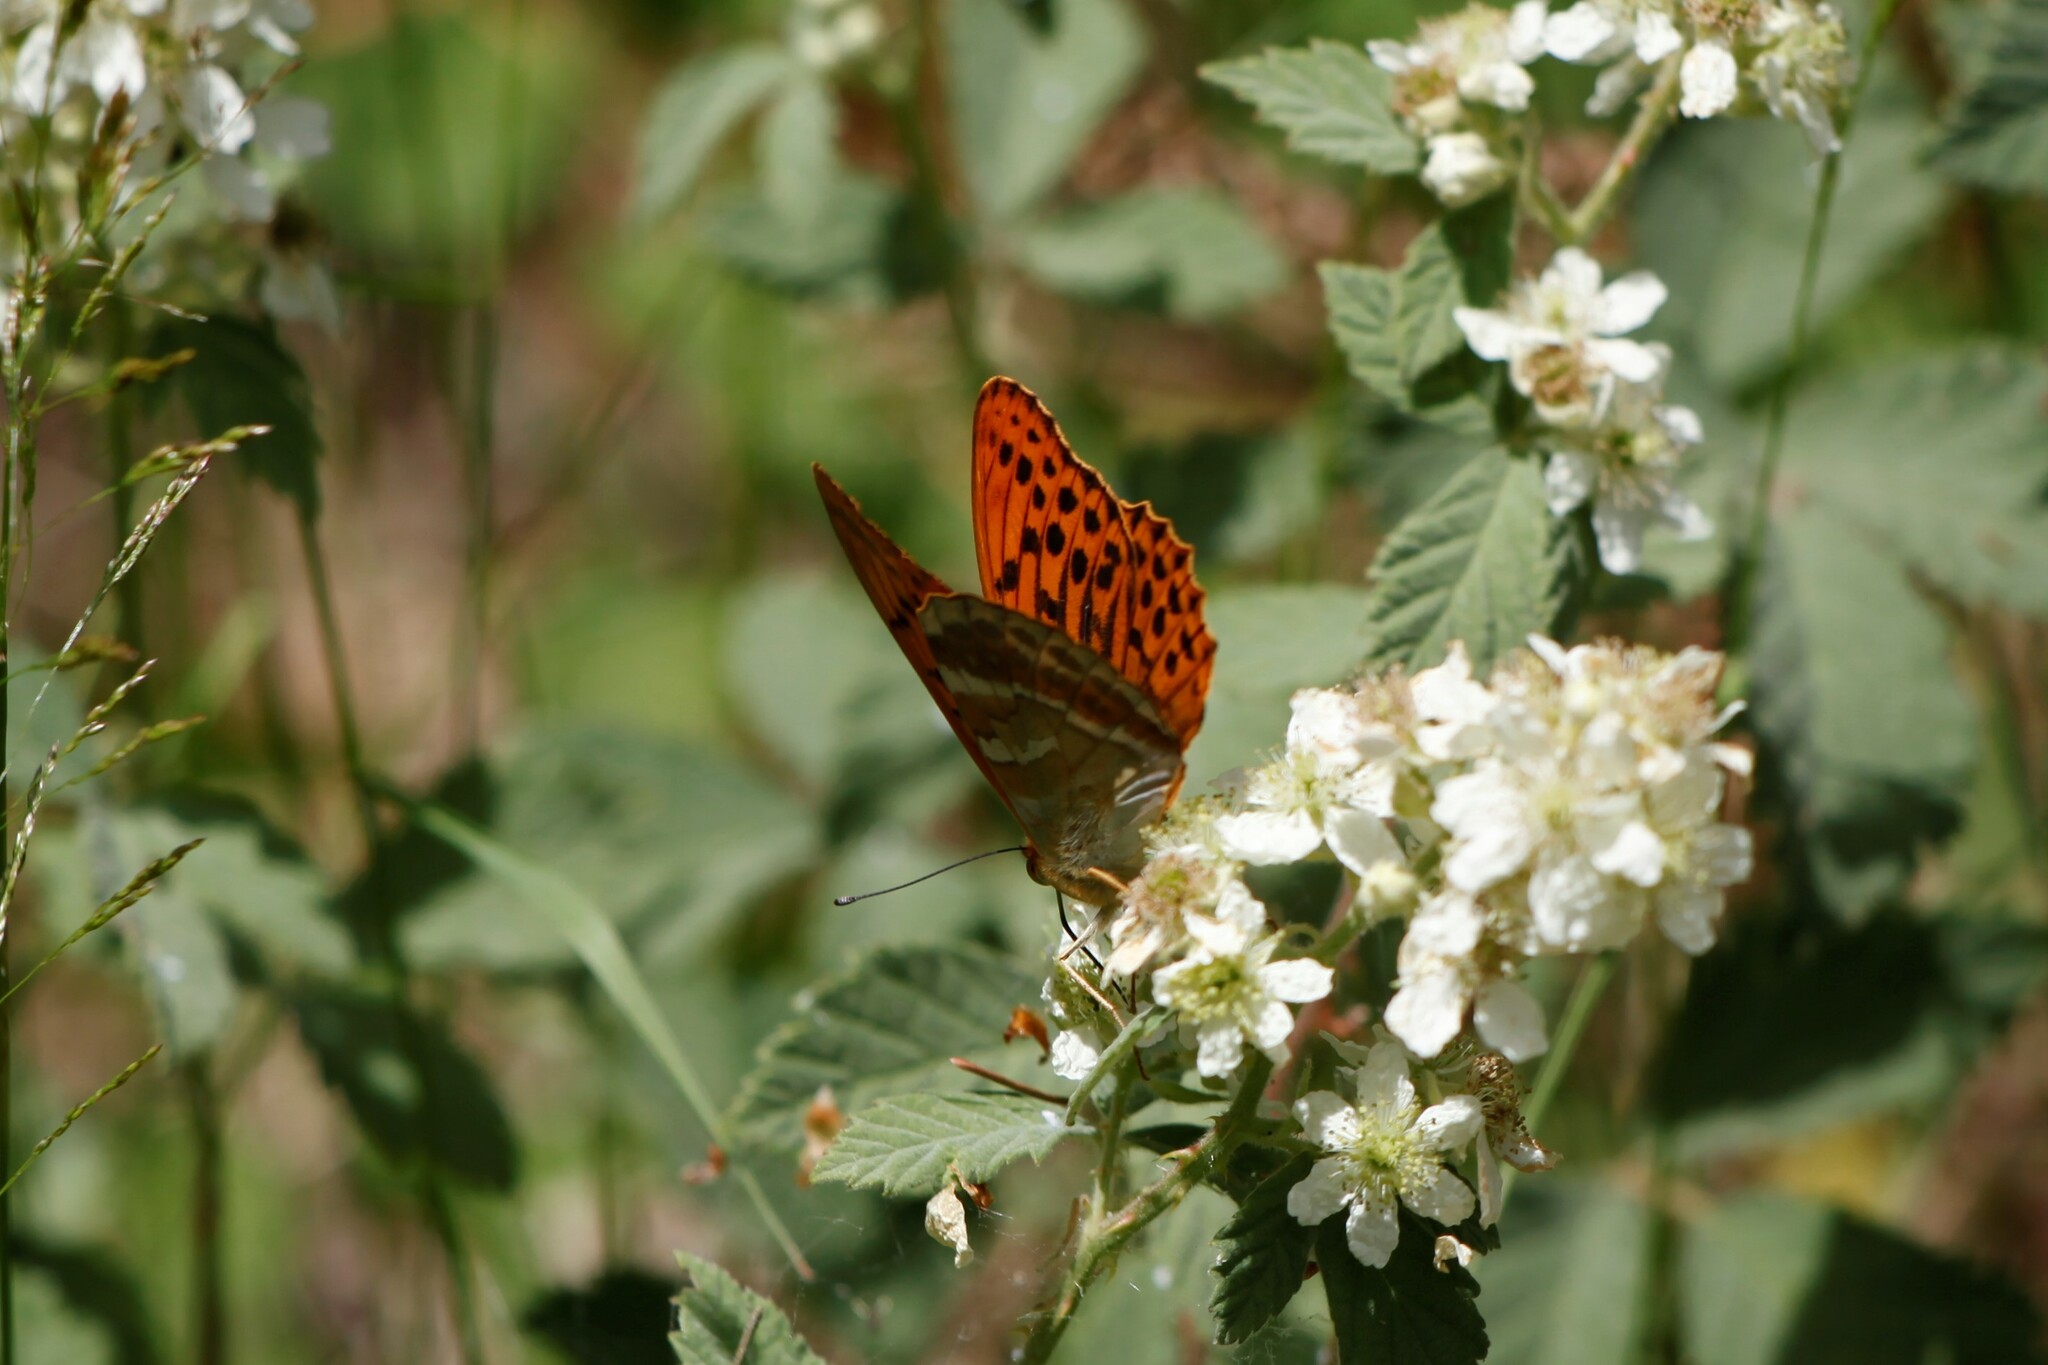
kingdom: Animalia
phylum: Arthropoda
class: Insecta
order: Lepidoptera
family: Nymphalidae
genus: Argynnis
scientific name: Argynnis paphia
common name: Silver-washed fritillary
